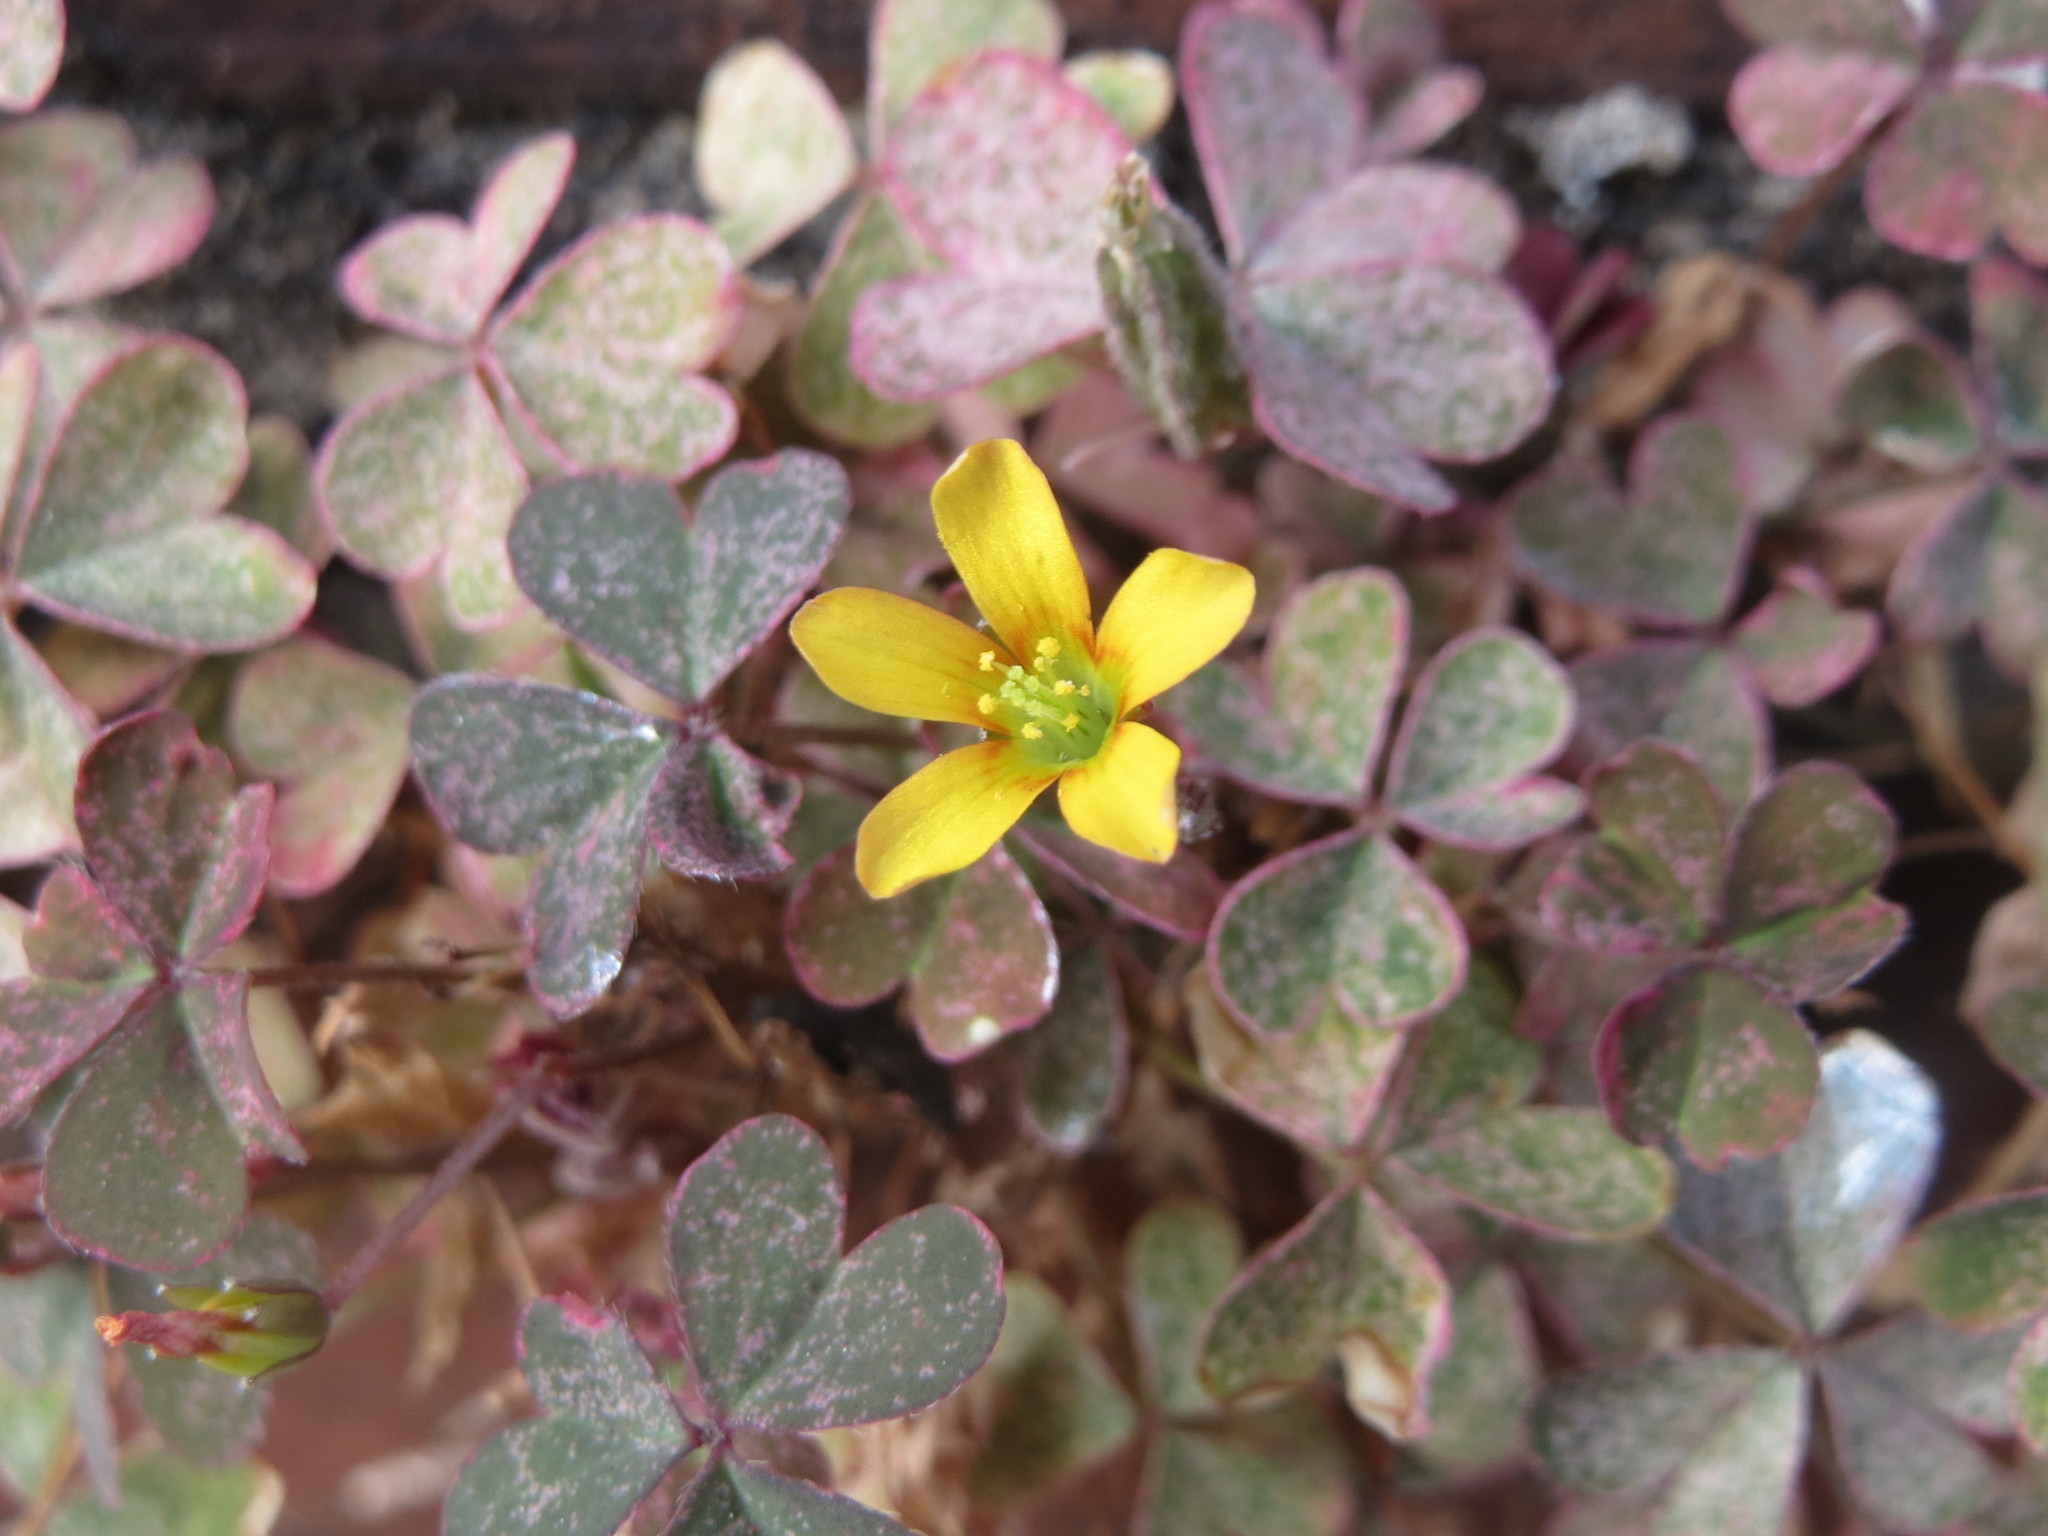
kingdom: Plantae
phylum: Tracheophyta
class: Magnoliopsida
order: Oxalidales
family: Oxalidaceae
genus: Oxalis
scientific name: Oxalis corniculata
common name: Procumbent yellow-sorrel
